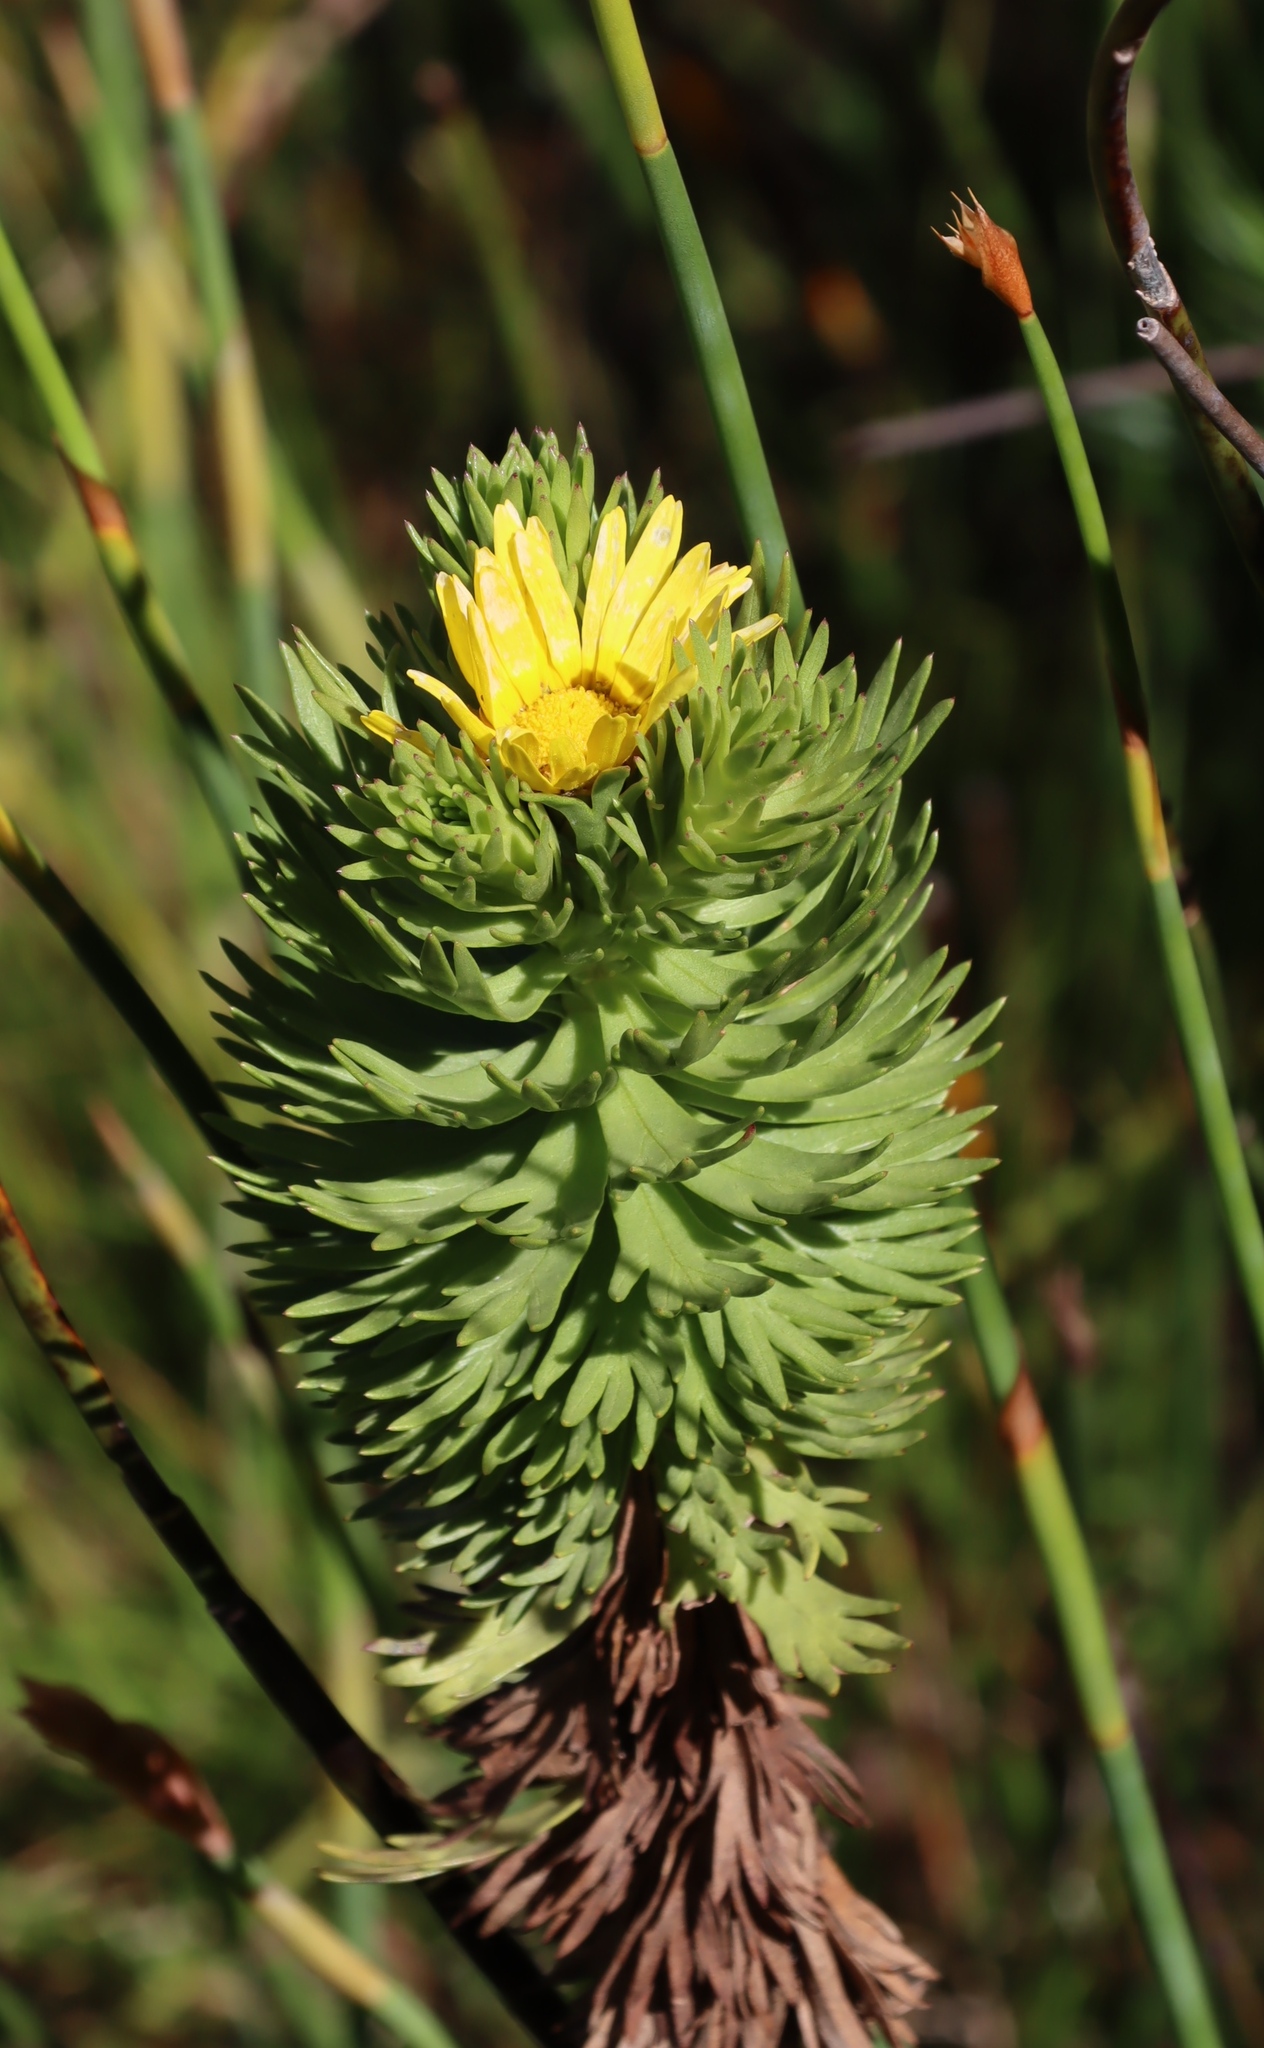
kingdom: Plantae
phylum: Tracheophyta
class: Magnoliopsida
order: Asterales
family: Asteraceae
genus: Ursinia
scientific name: Ursinia caledonica
